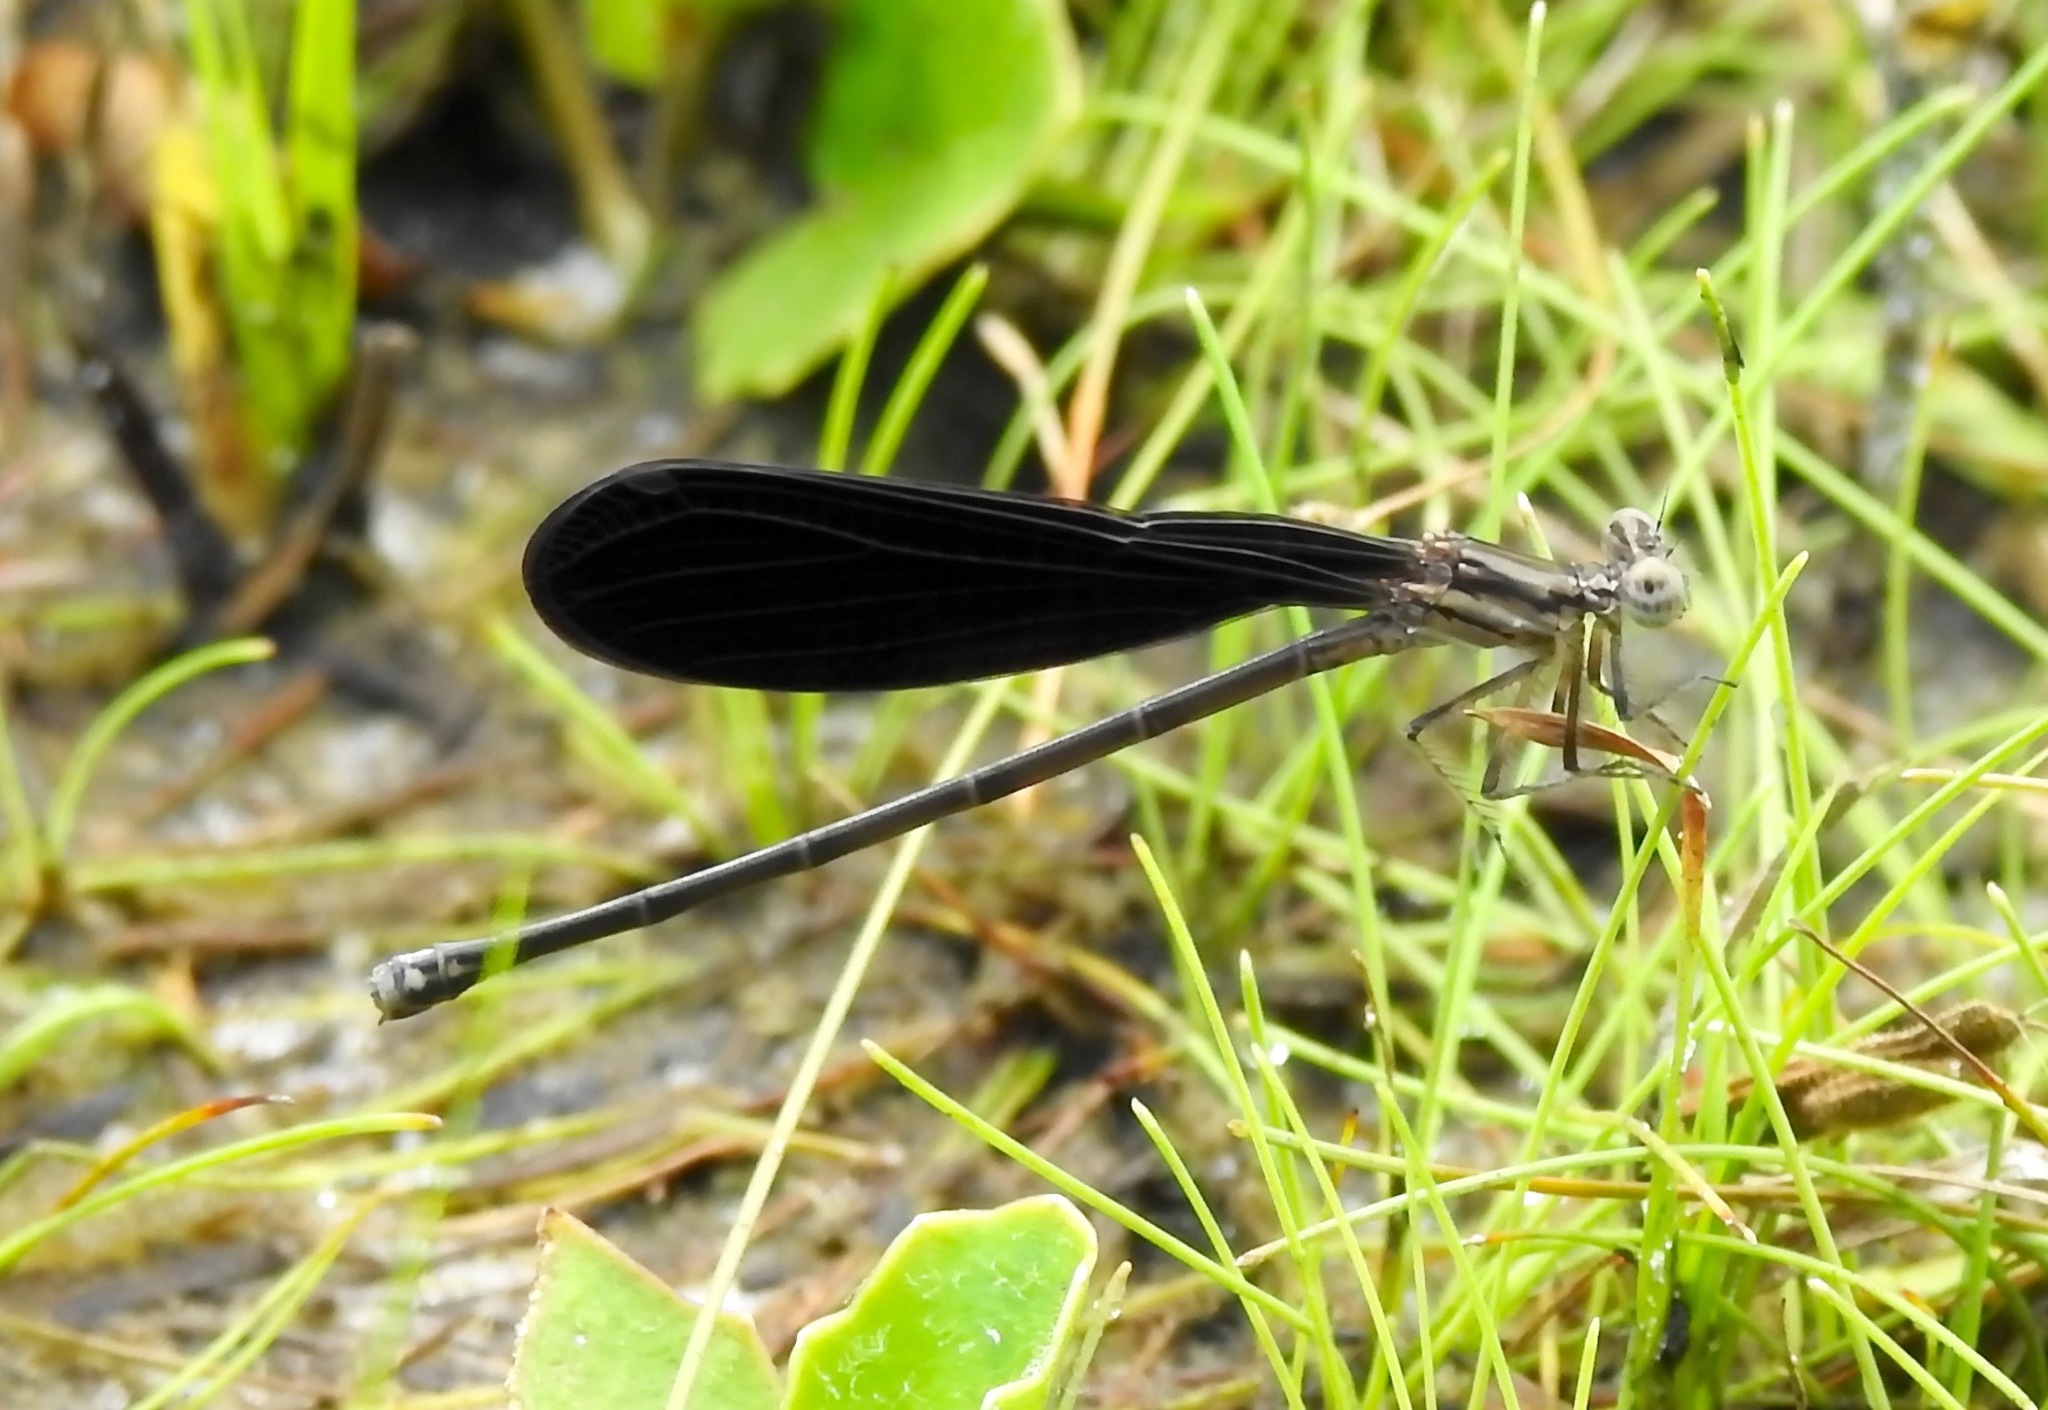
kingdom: Animalia
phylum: Arthropoda
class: Insecta
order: Odonata
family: Coenagrionidae
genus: Argia
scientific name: Argia fumipennis
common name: Variable dancer
